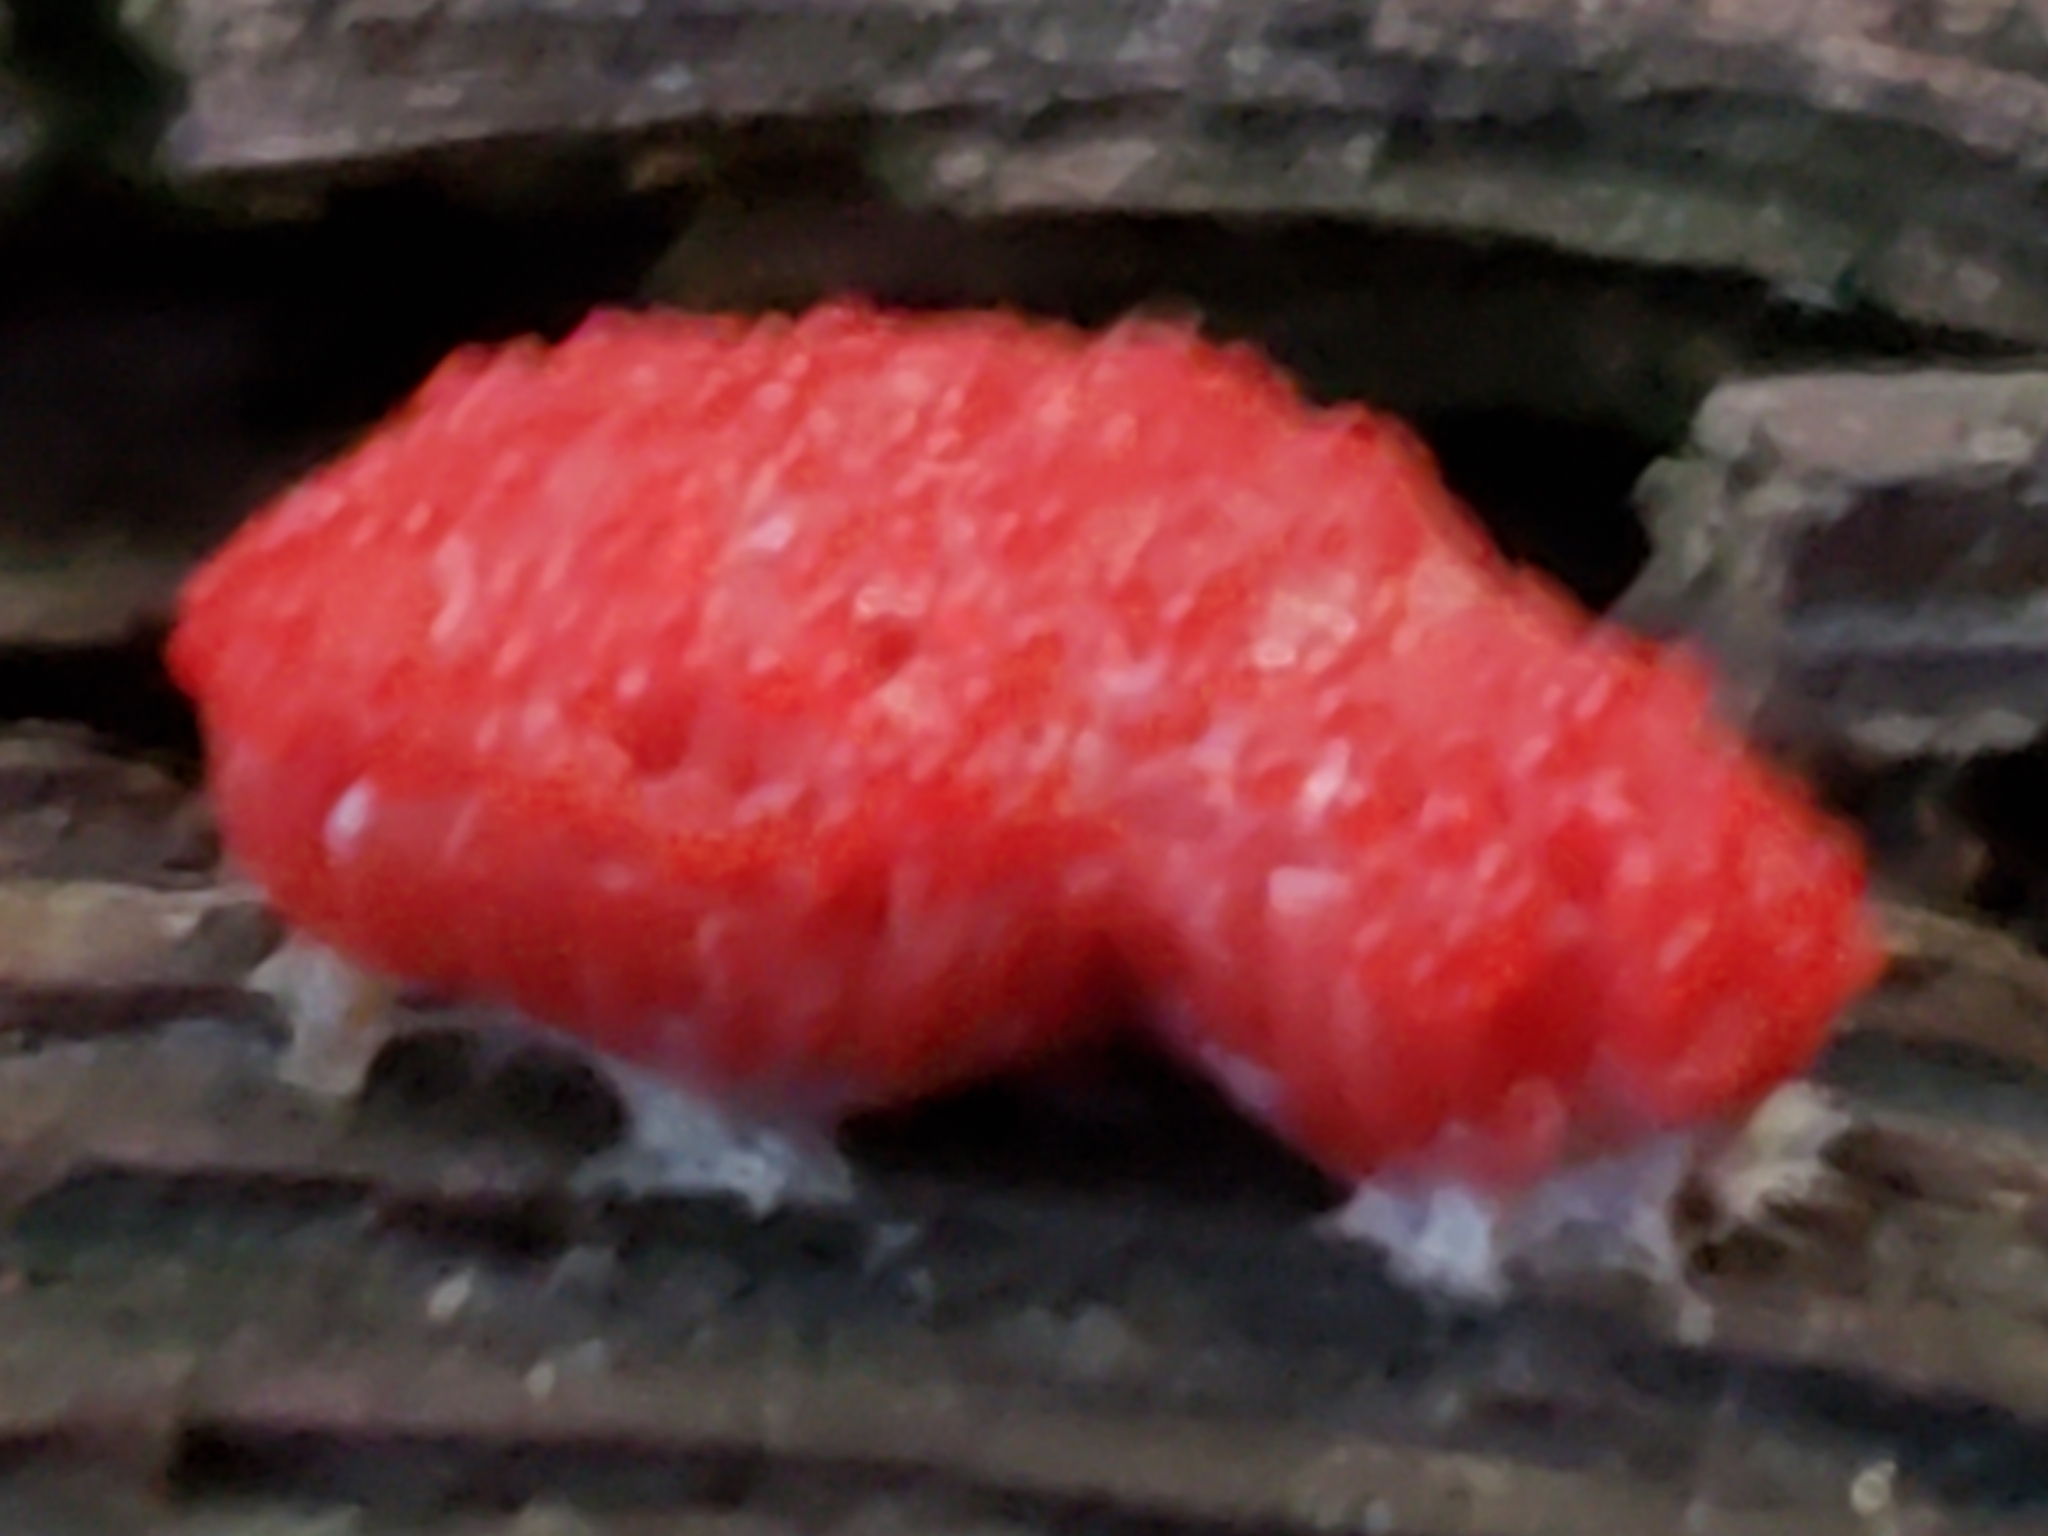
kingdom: Protozoa
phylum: Mycetozoa
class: Myxomycetes
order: Cribrariales
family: Tubiferaceae
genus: Tubifera
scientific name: Tubifera ferruginosa
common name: Red raspberry slime mold
